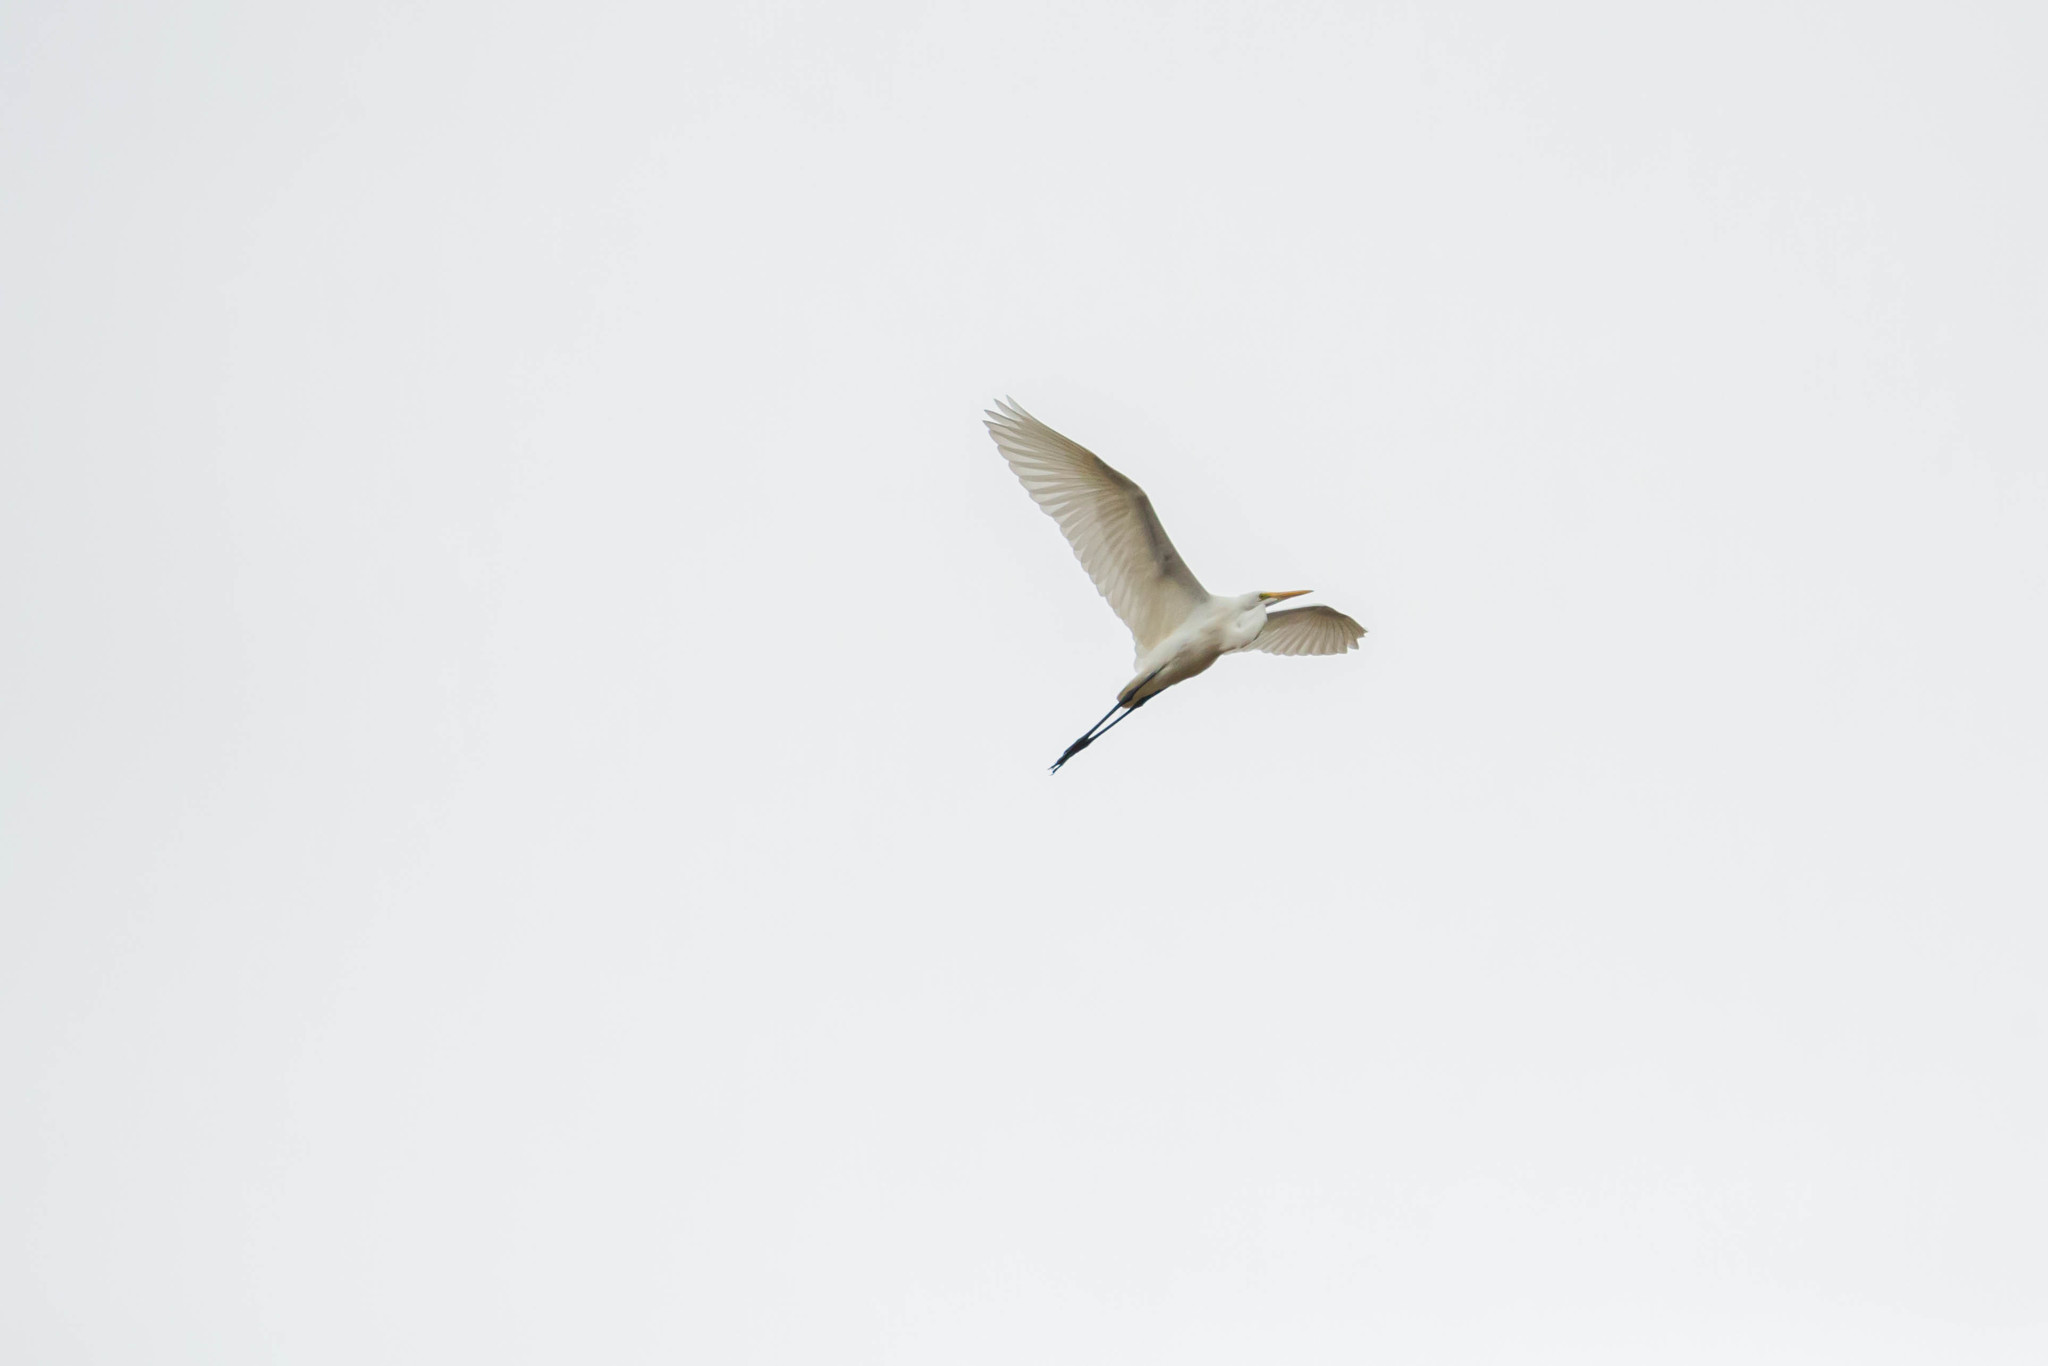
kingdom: Animalia
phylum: Chordata
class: Aves
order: Pelecaniformes
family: Ardeidae
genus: Ardea
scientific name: Ardea alba
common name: Great egret
